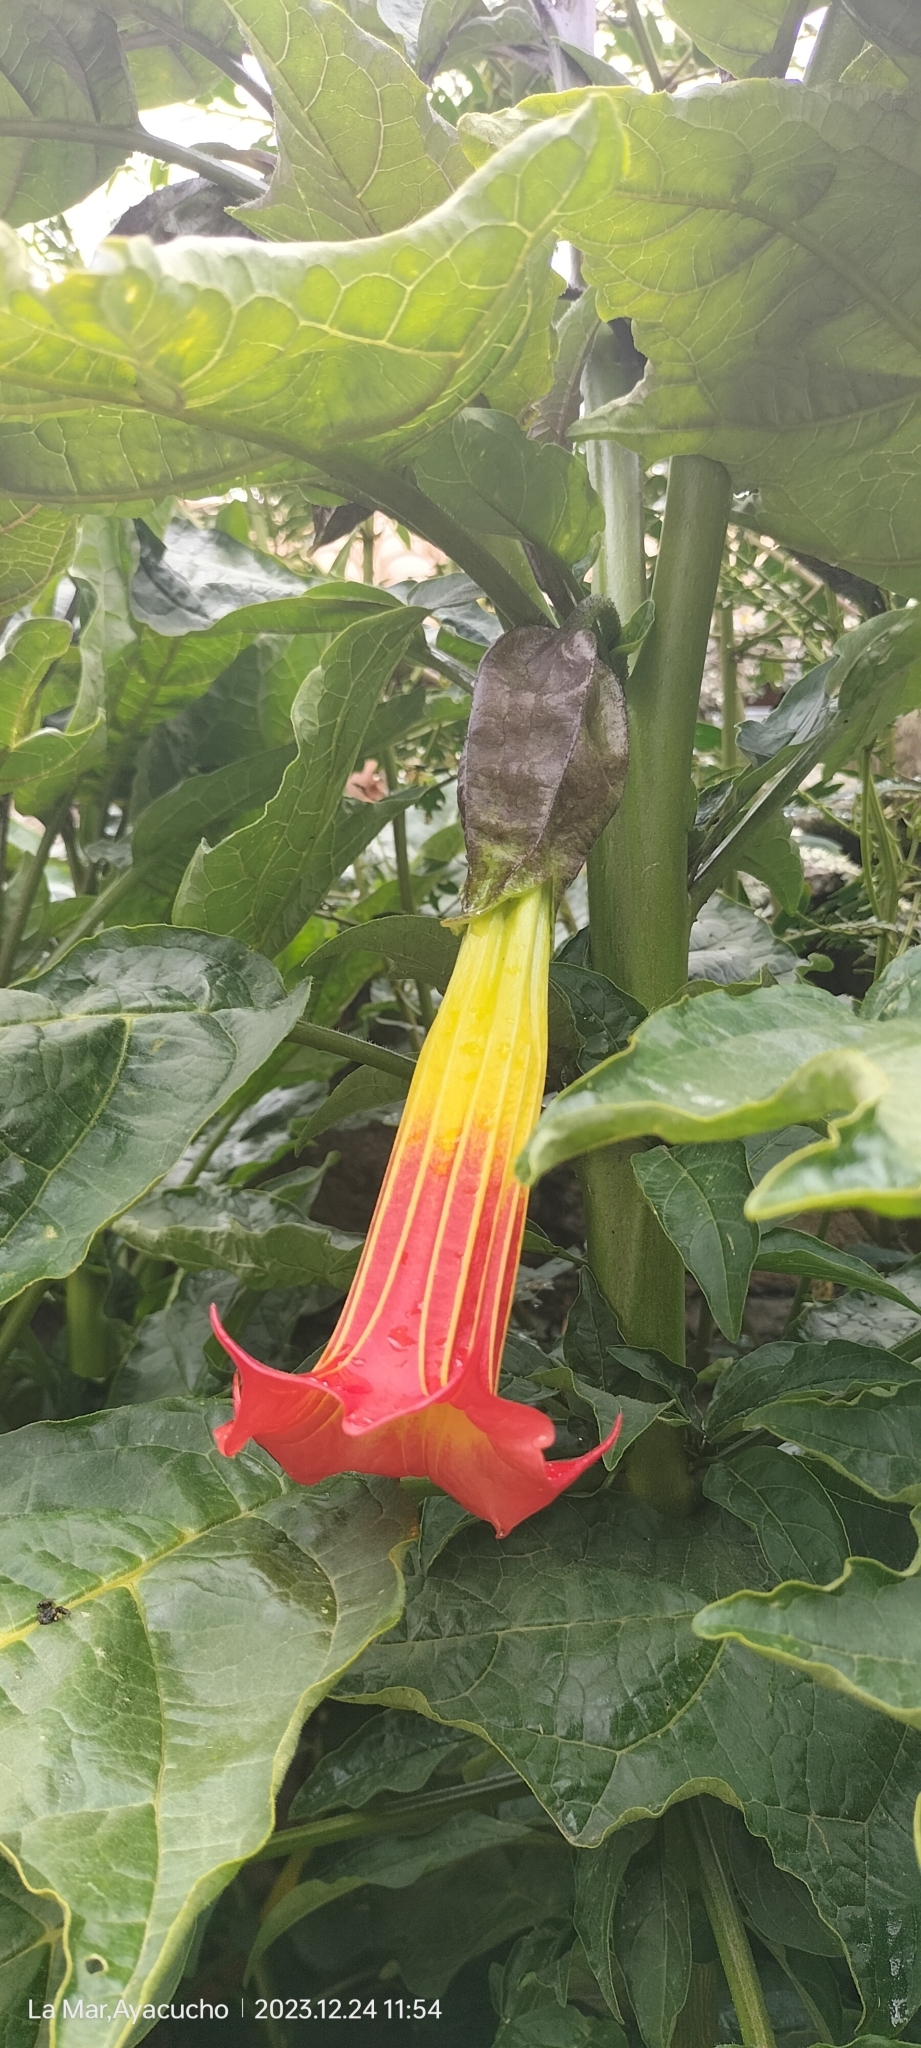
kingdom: Plantae
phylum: Tracheophyta
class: Magnoliopsida
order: Solanales
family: Solanaceae
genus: Brugmansia
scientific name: Brugmansia sanguinea
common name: Red floripontio
